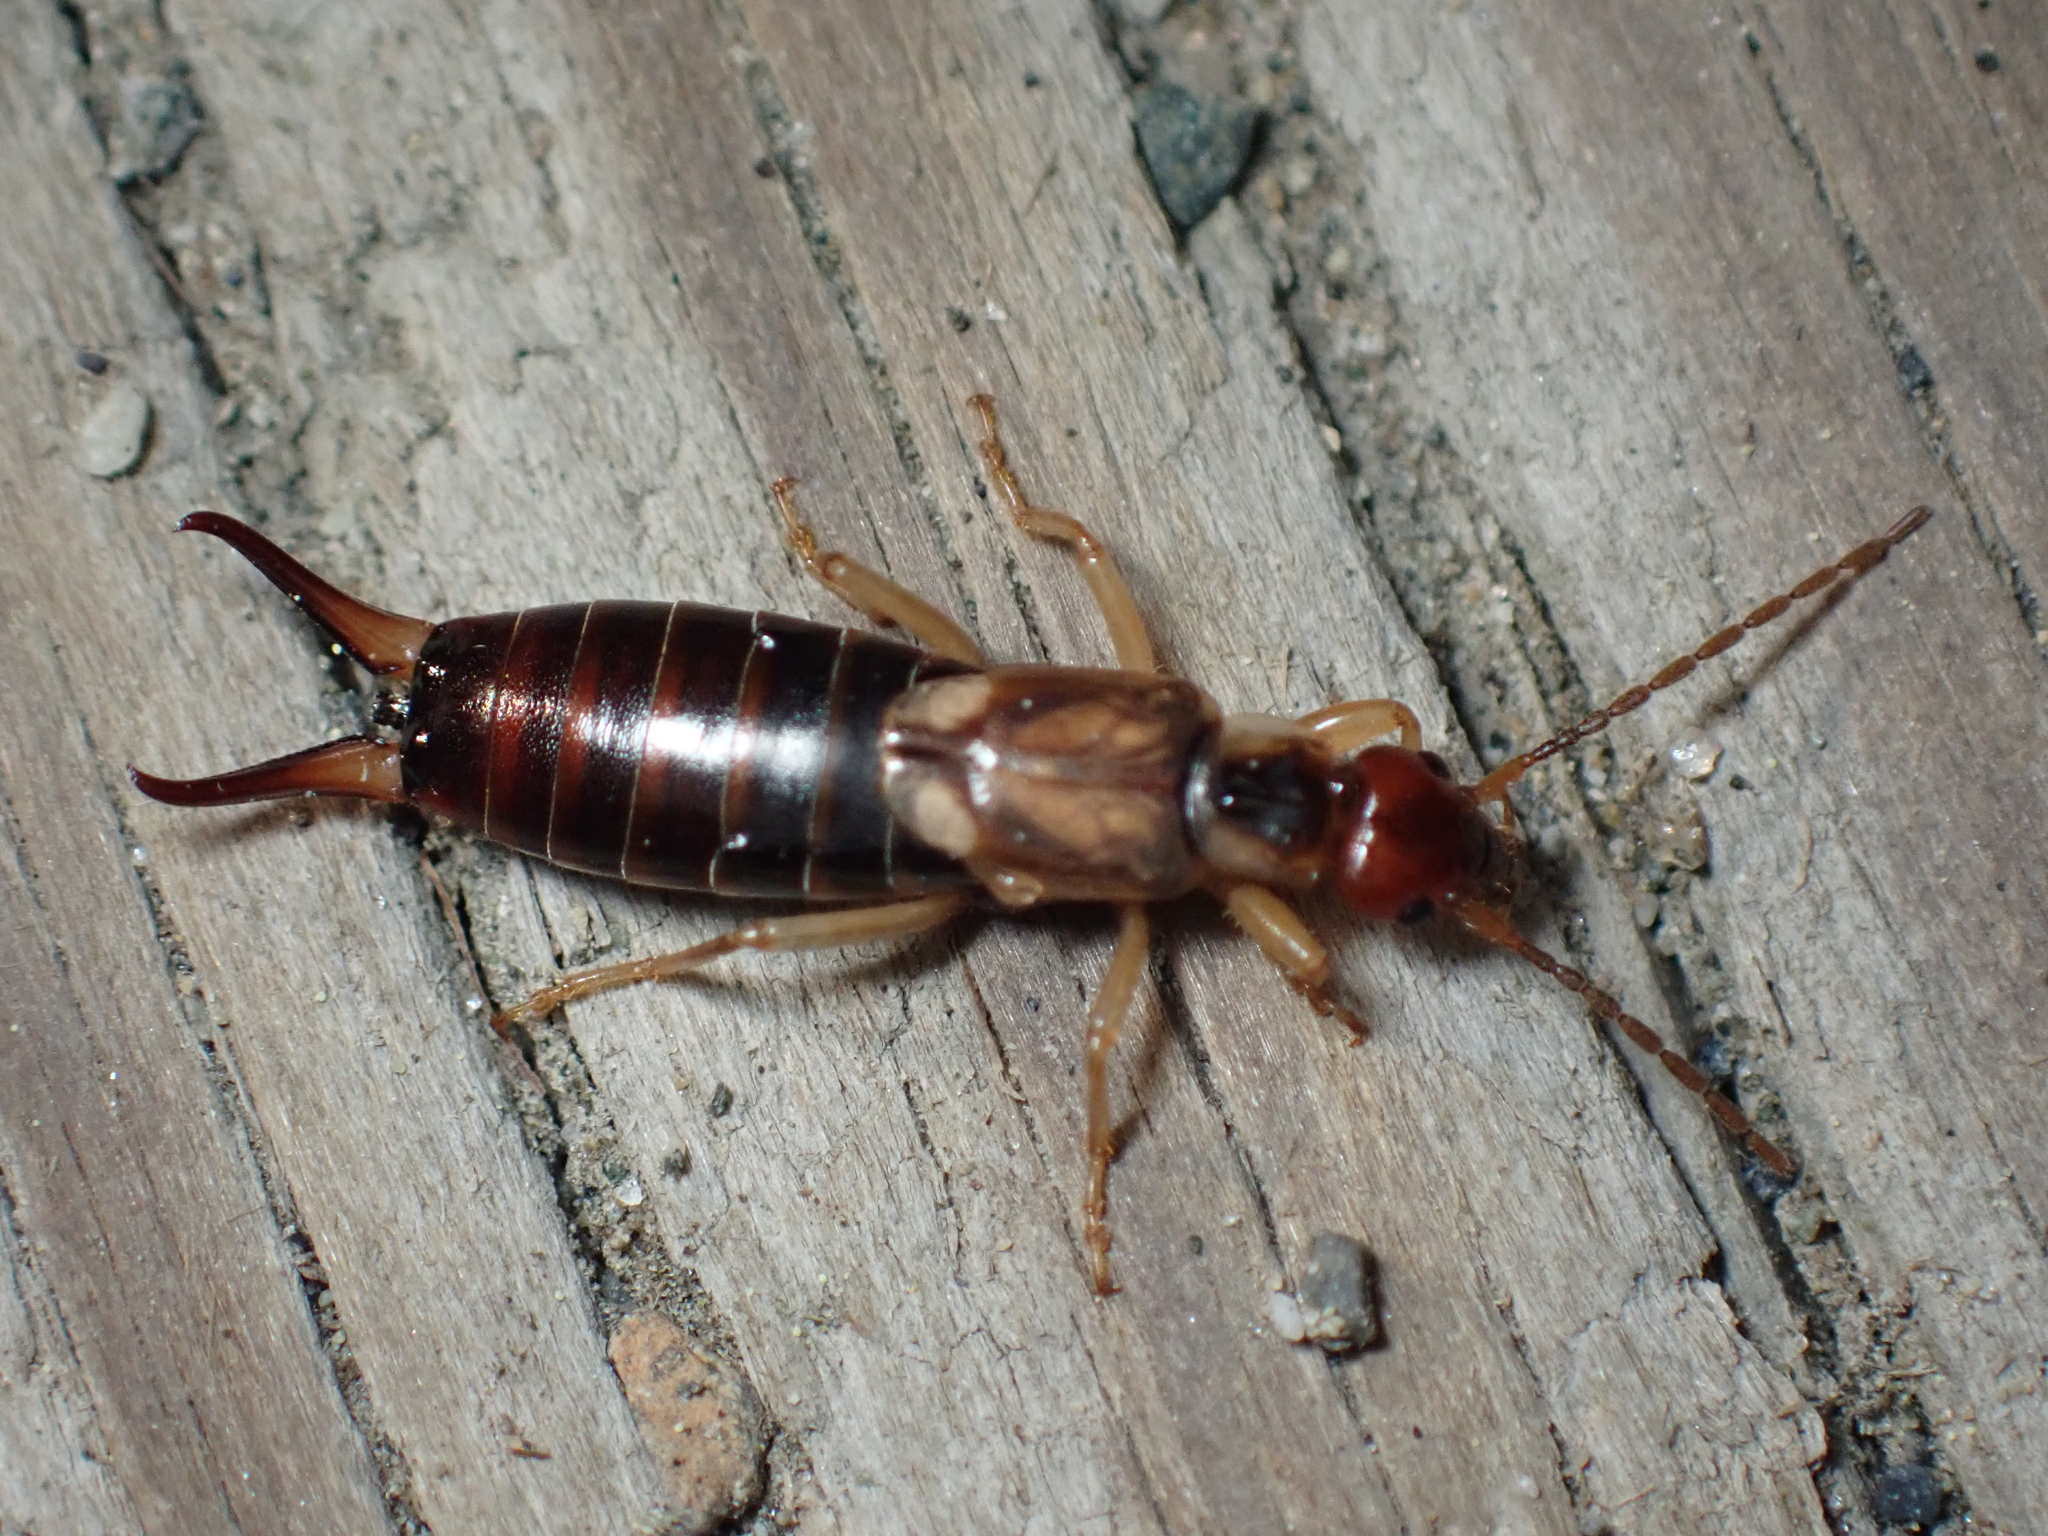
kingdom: Animalia
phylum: Arthropoda
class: Insecta
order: Dermaptera
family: Forficulidae
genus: Forficula
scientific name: Forficula
